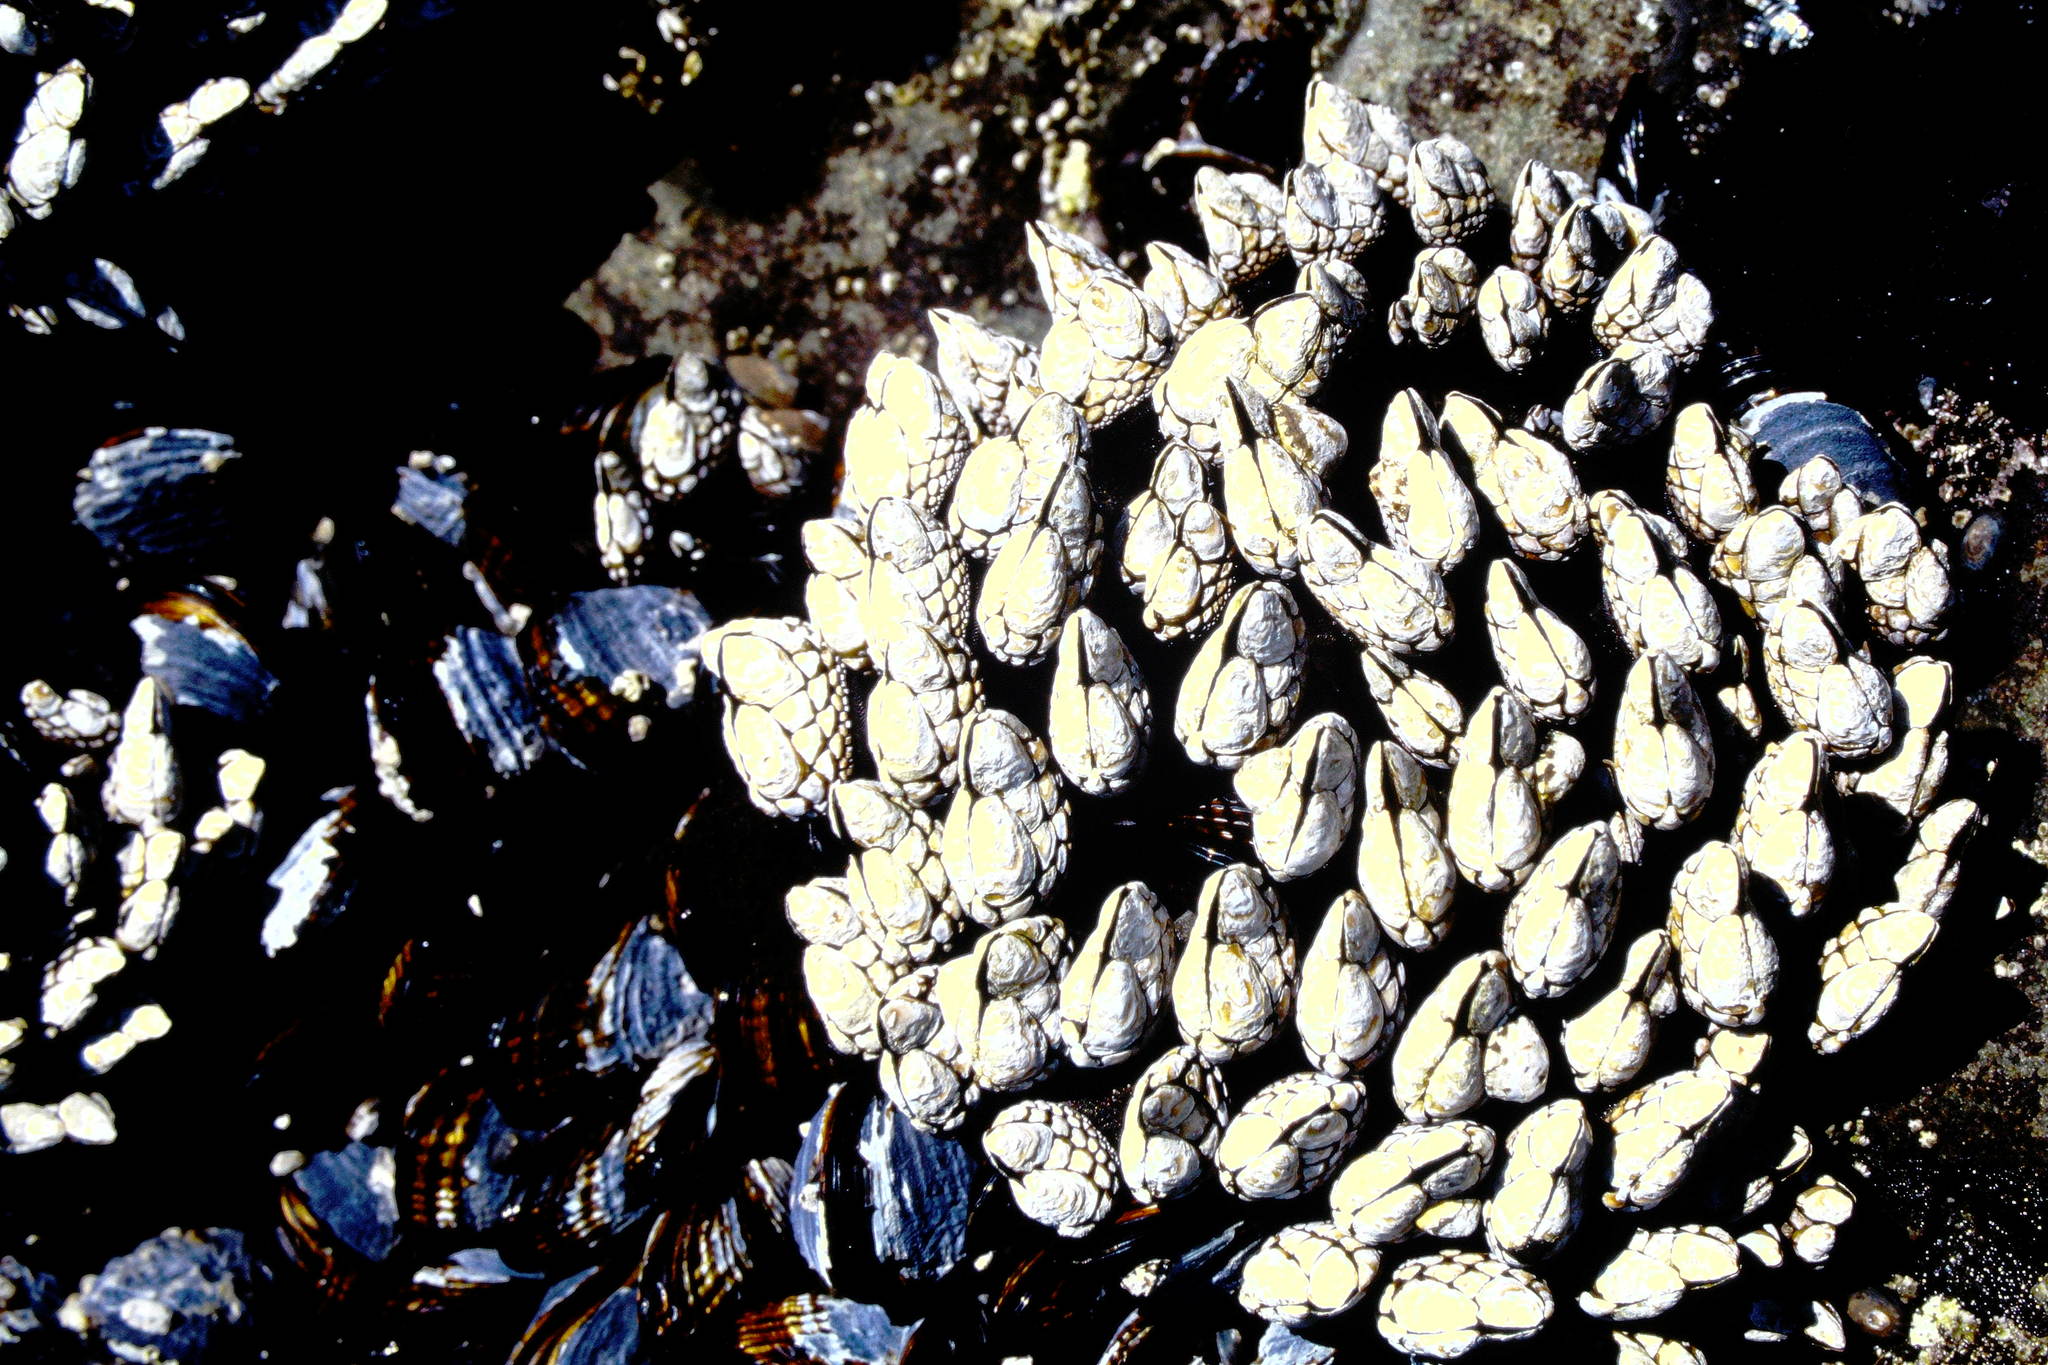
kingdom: Animalia
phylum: Arthropoda
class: Maxillopoda
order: Pedunculata
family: Pollicipedidae
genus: Pollicipes
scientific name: Pollicipes polymerus
